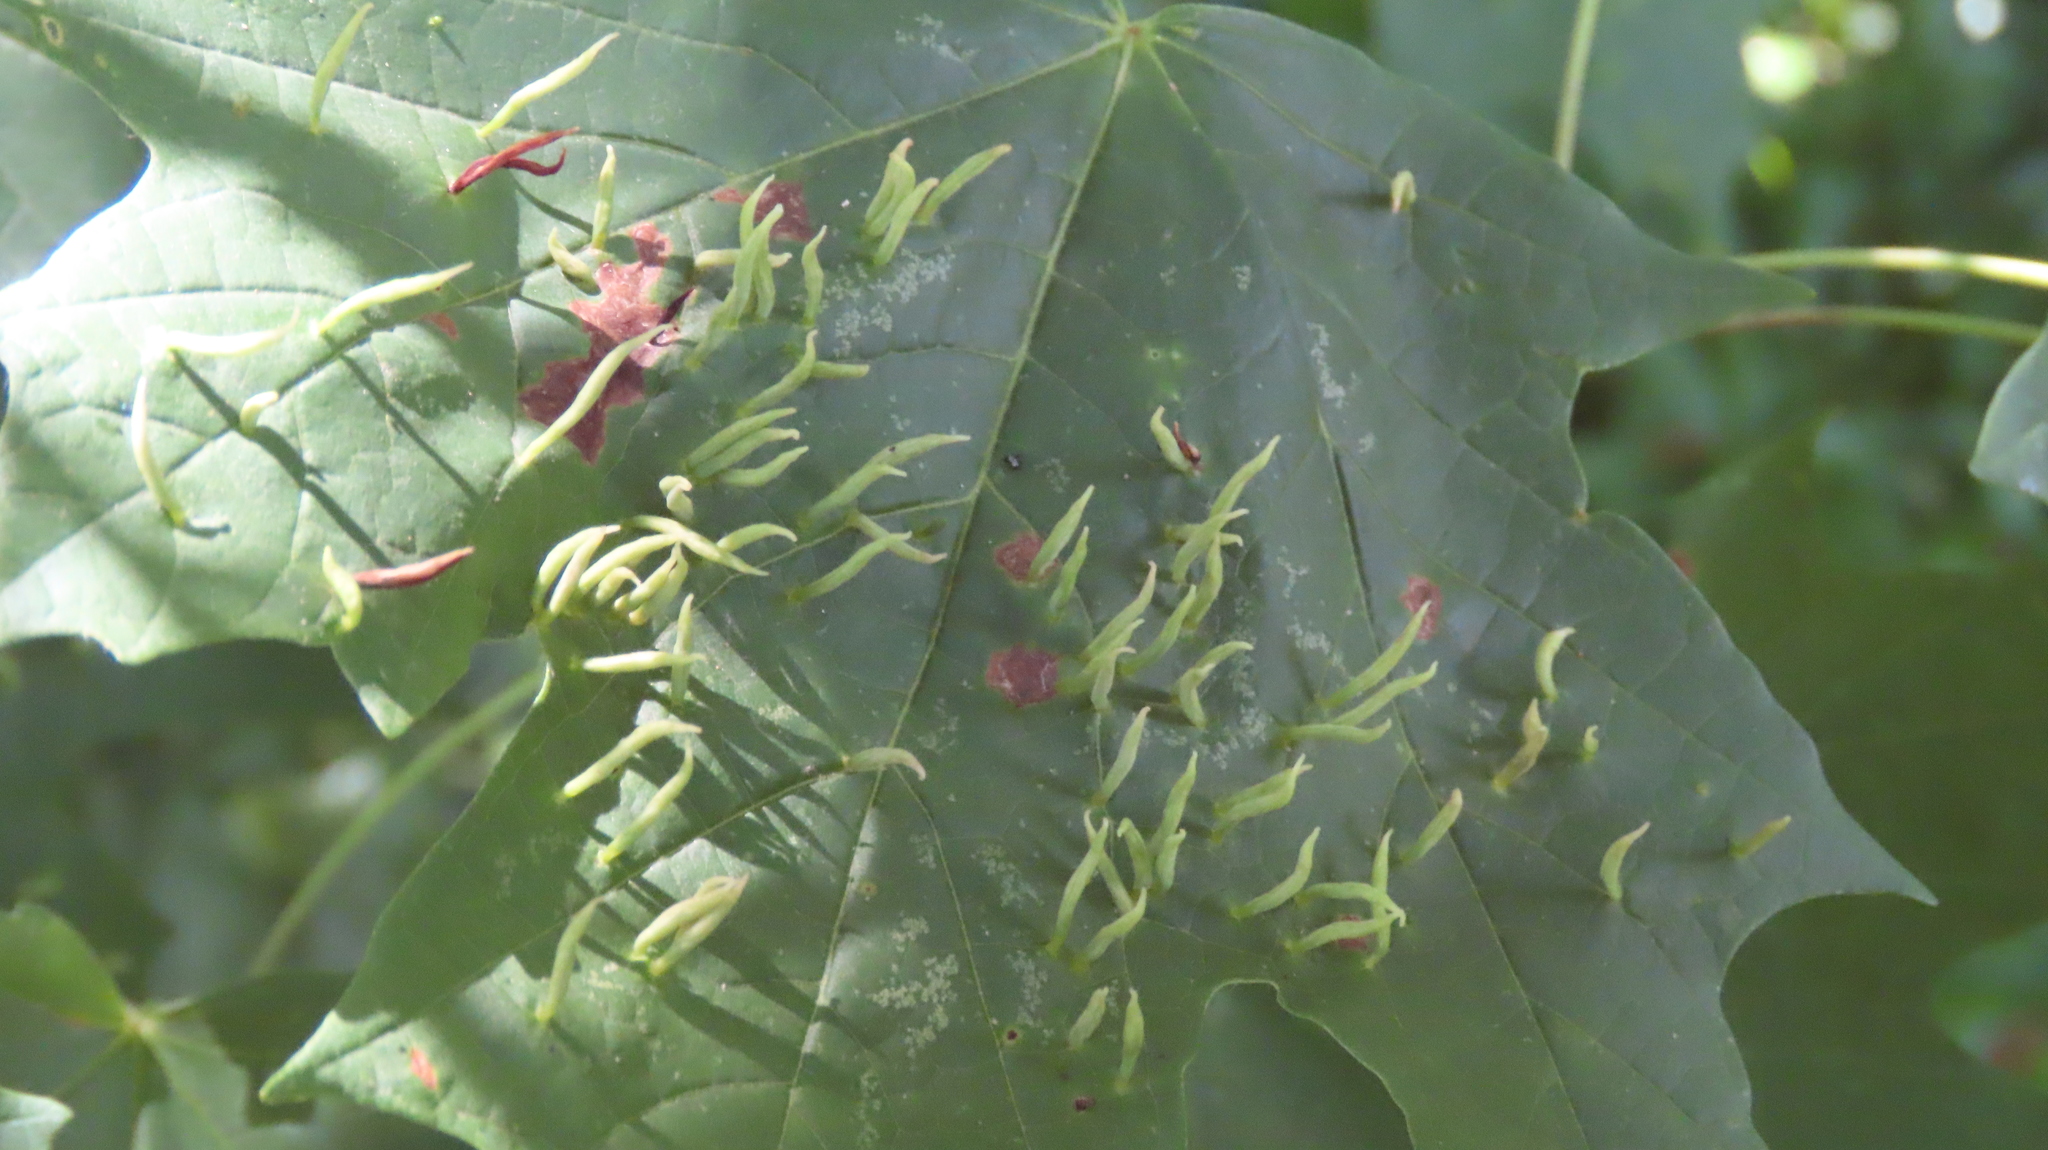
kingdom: Animalia
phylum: Arthropoda
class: Arachnida
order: Trombidiformes
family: Eriophyidae
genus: Vasates
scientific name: Vasates aceriscrumena
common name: Maple spindle gall mite
